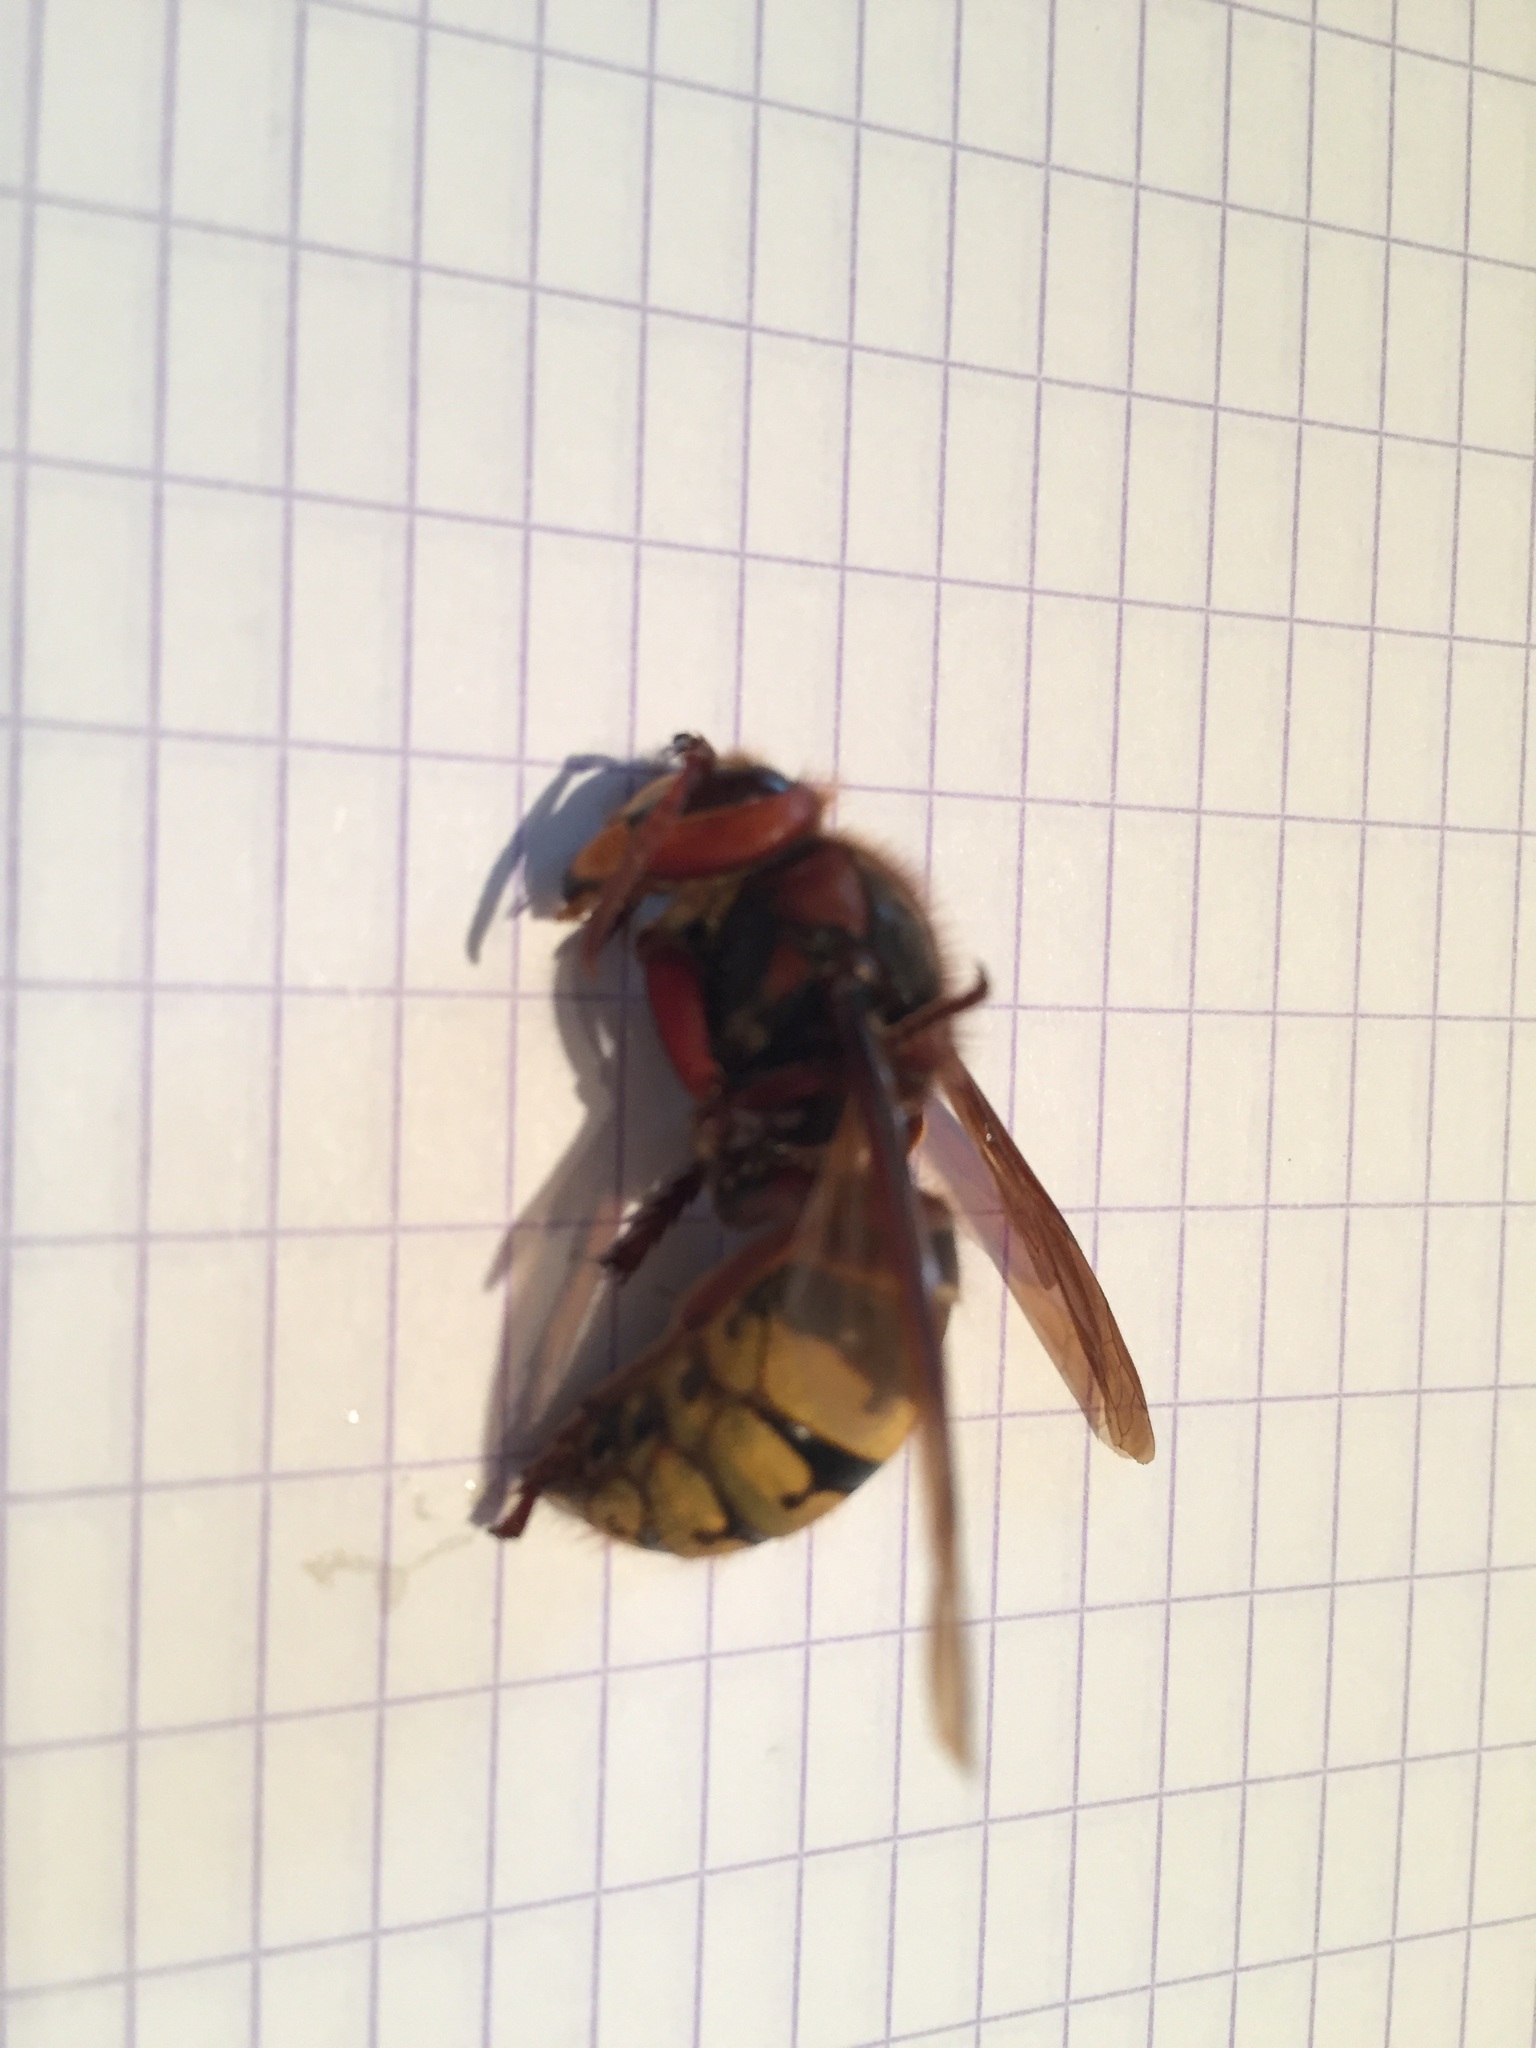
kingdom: Animalia
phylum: Arthropoda
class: Insecta
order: Hymenoptera
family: Vespidae
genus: Vespa
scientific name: Vespa crabro
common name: Hornet
